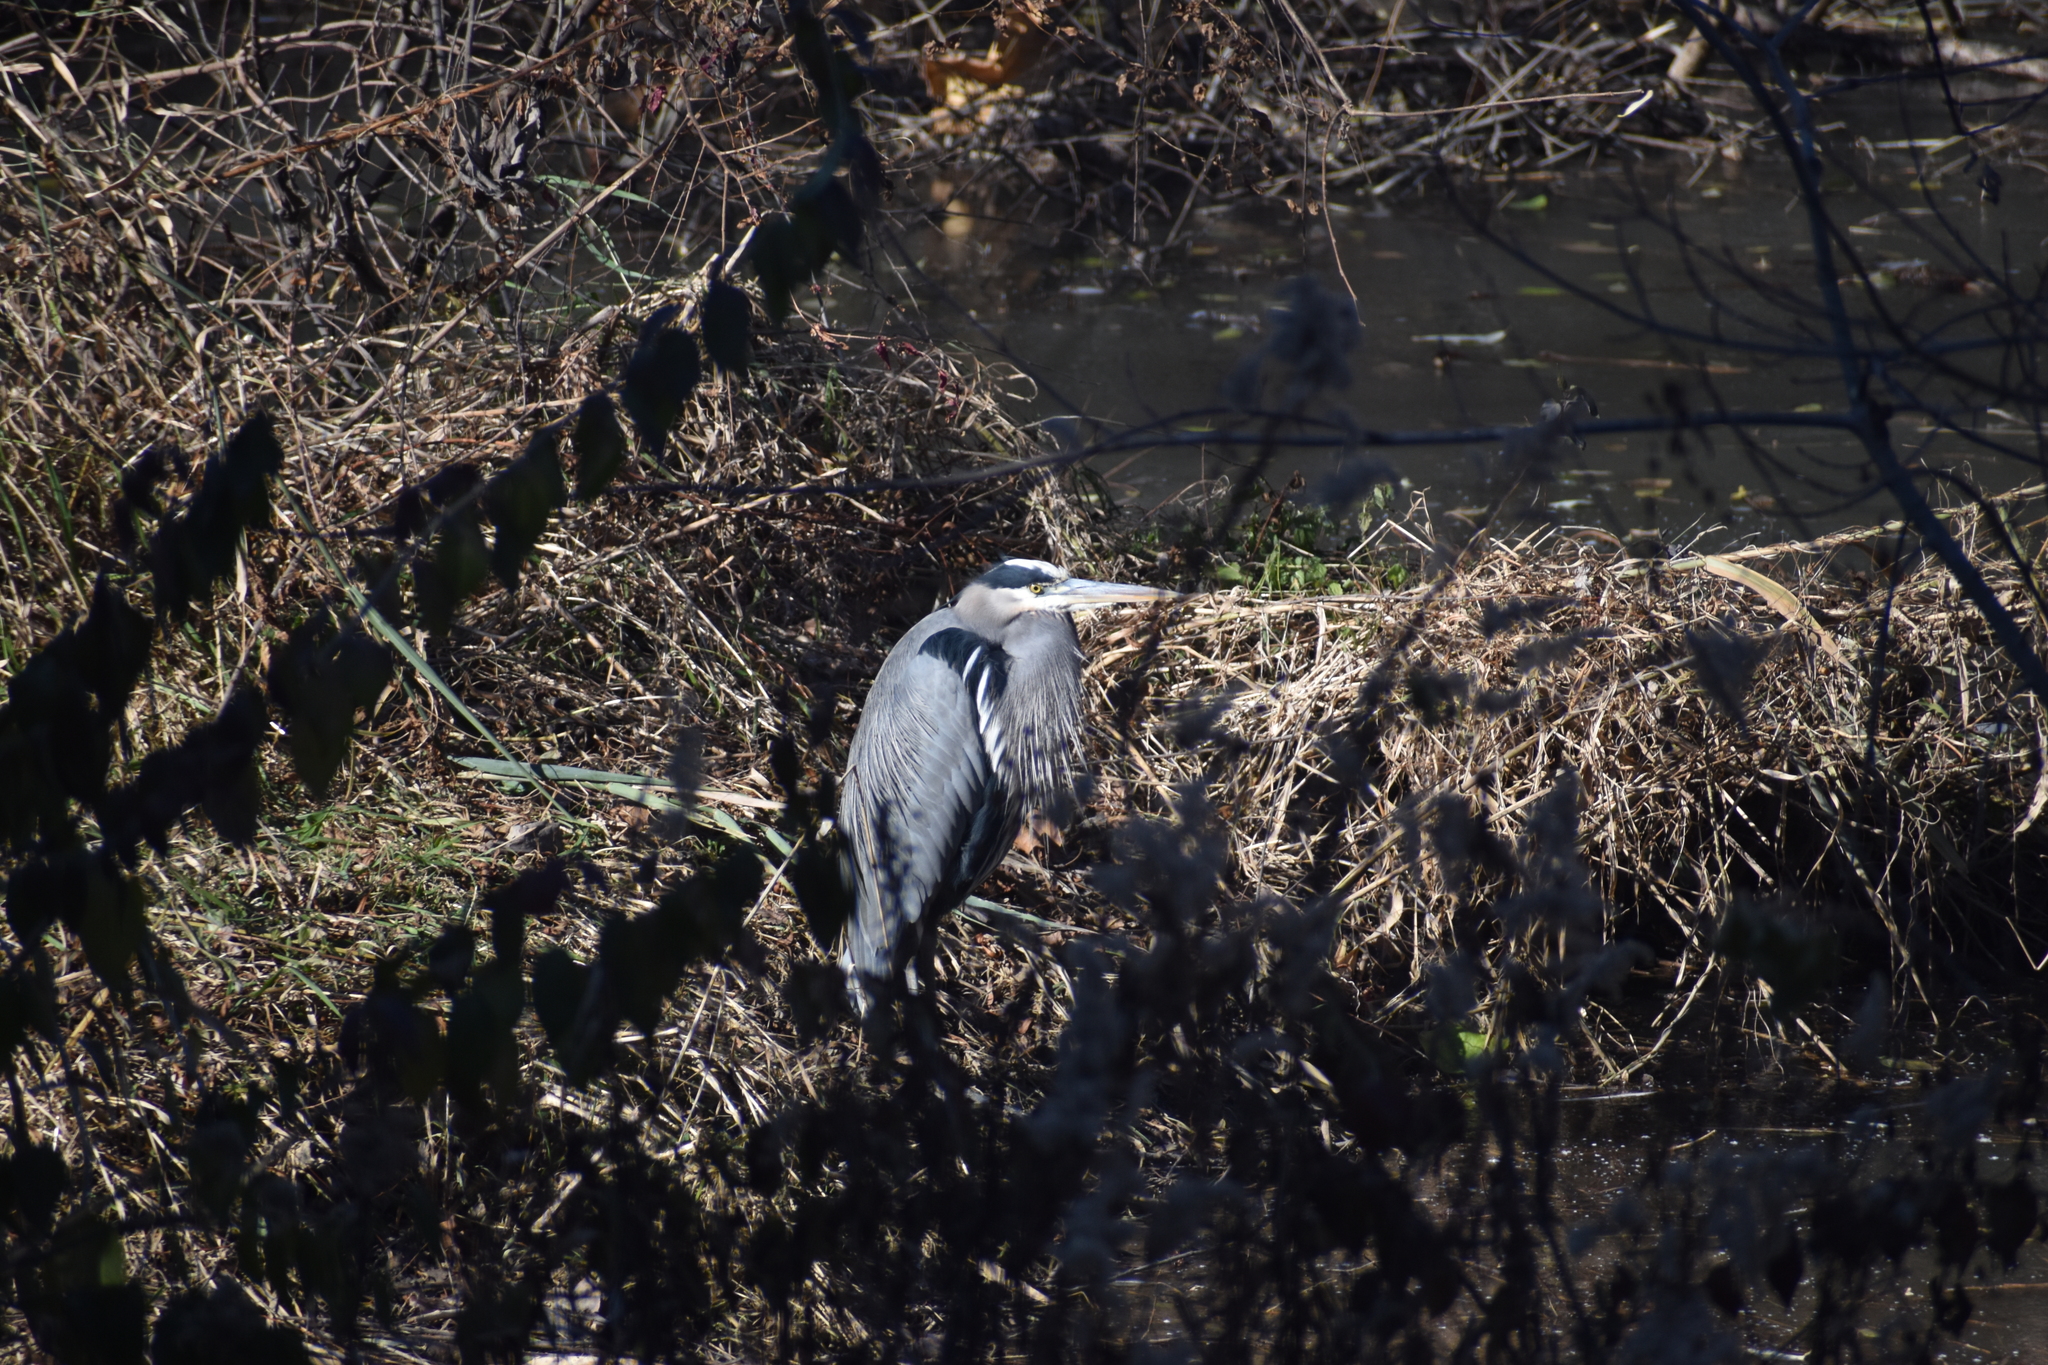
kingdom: Animalia
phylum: Chordata
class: Aves
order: Pelecaniformes
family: Ardeidae
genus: Ardea
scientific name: Ardea herodias
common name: Great blue heron
